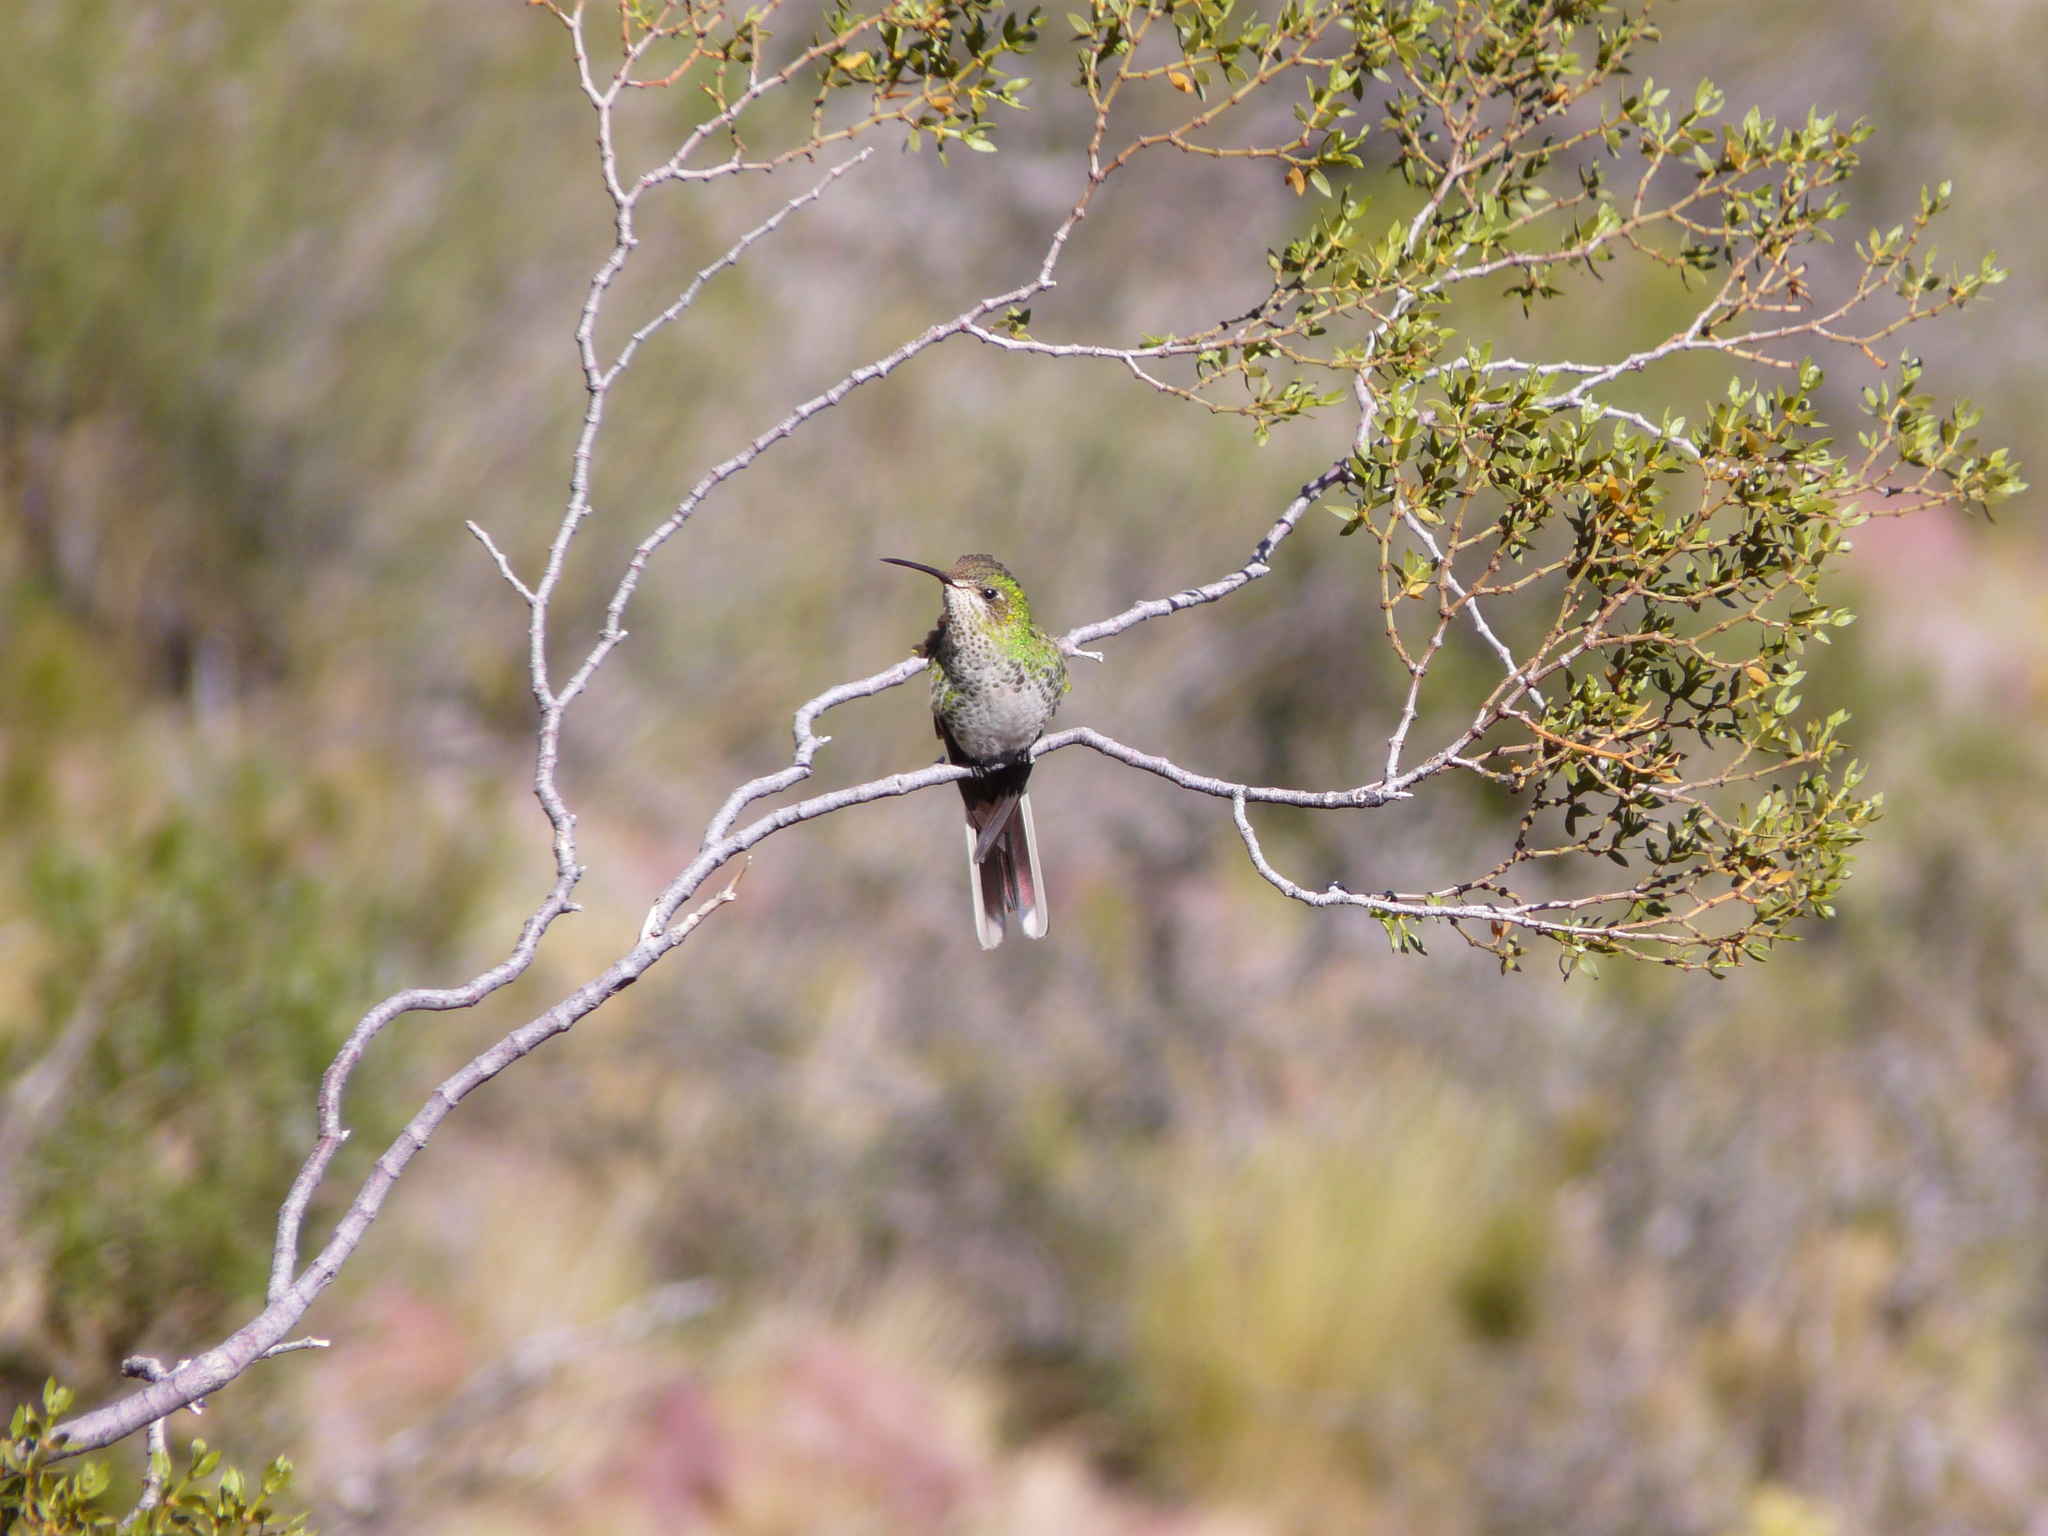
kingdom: Animalia
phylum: Chordata
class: Aves
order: Apodiformes
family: Trochilidae
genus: Sappho
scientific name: Sappho sparganurus
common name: Red-tailed comet
